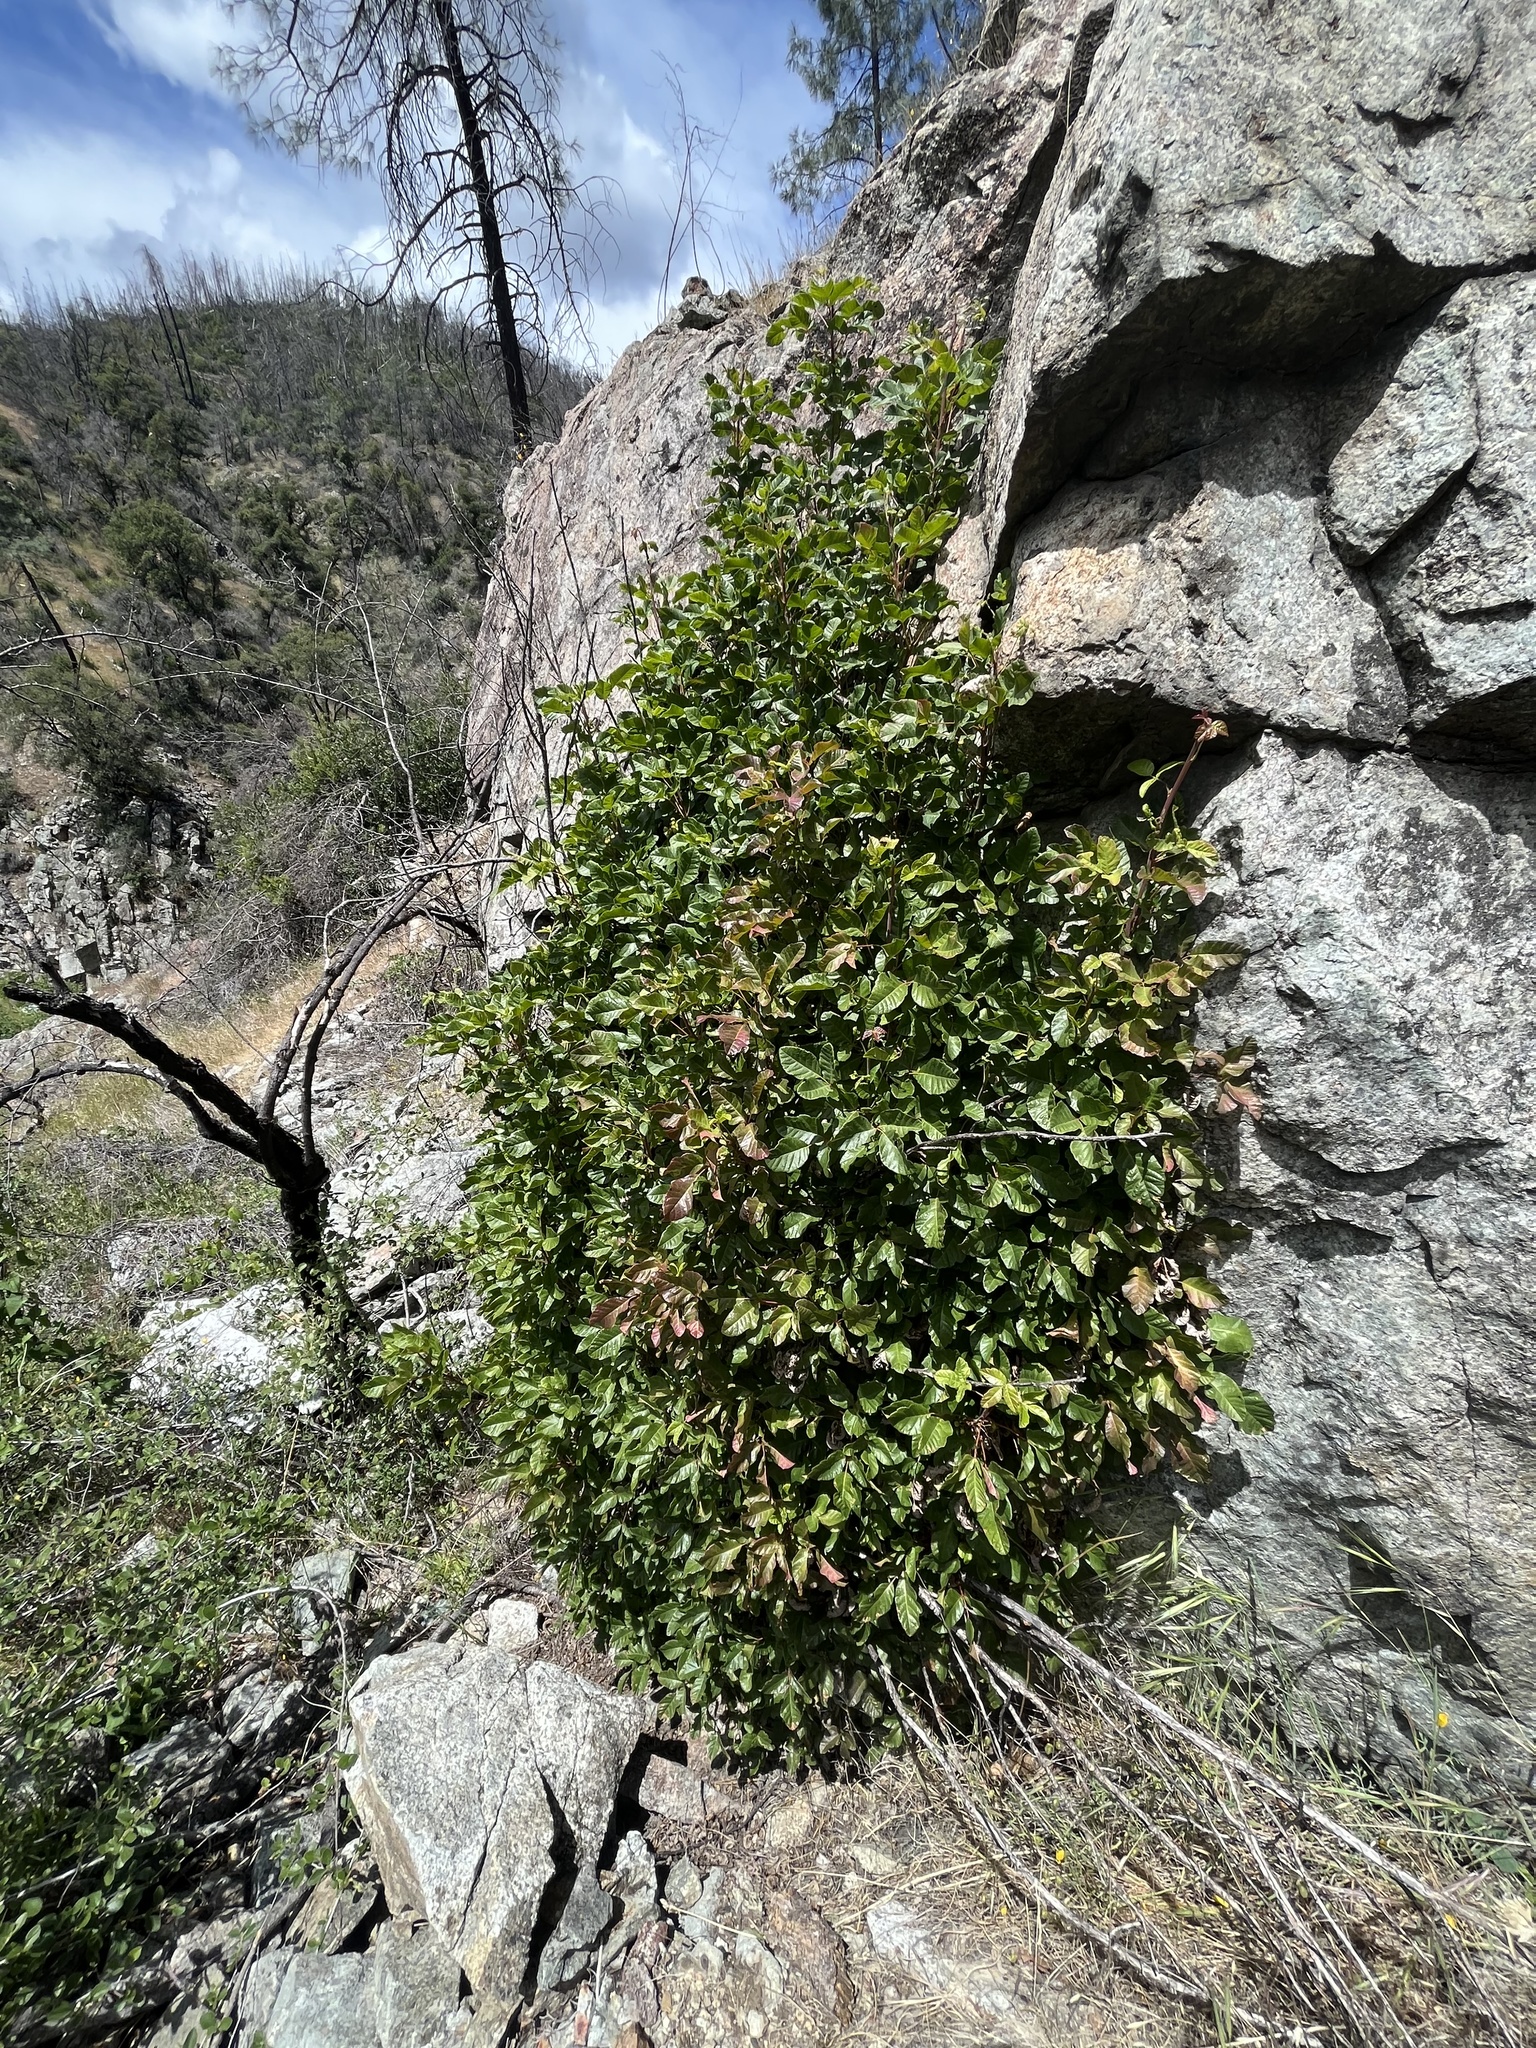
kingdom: Plantae
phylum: Tracheophyta
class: Magnoliopsida
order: Sapindales
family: Anacardiaceae
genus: Toxicodendron
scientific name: Toxicodendron diversilobum
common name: Pacific poison-oak
